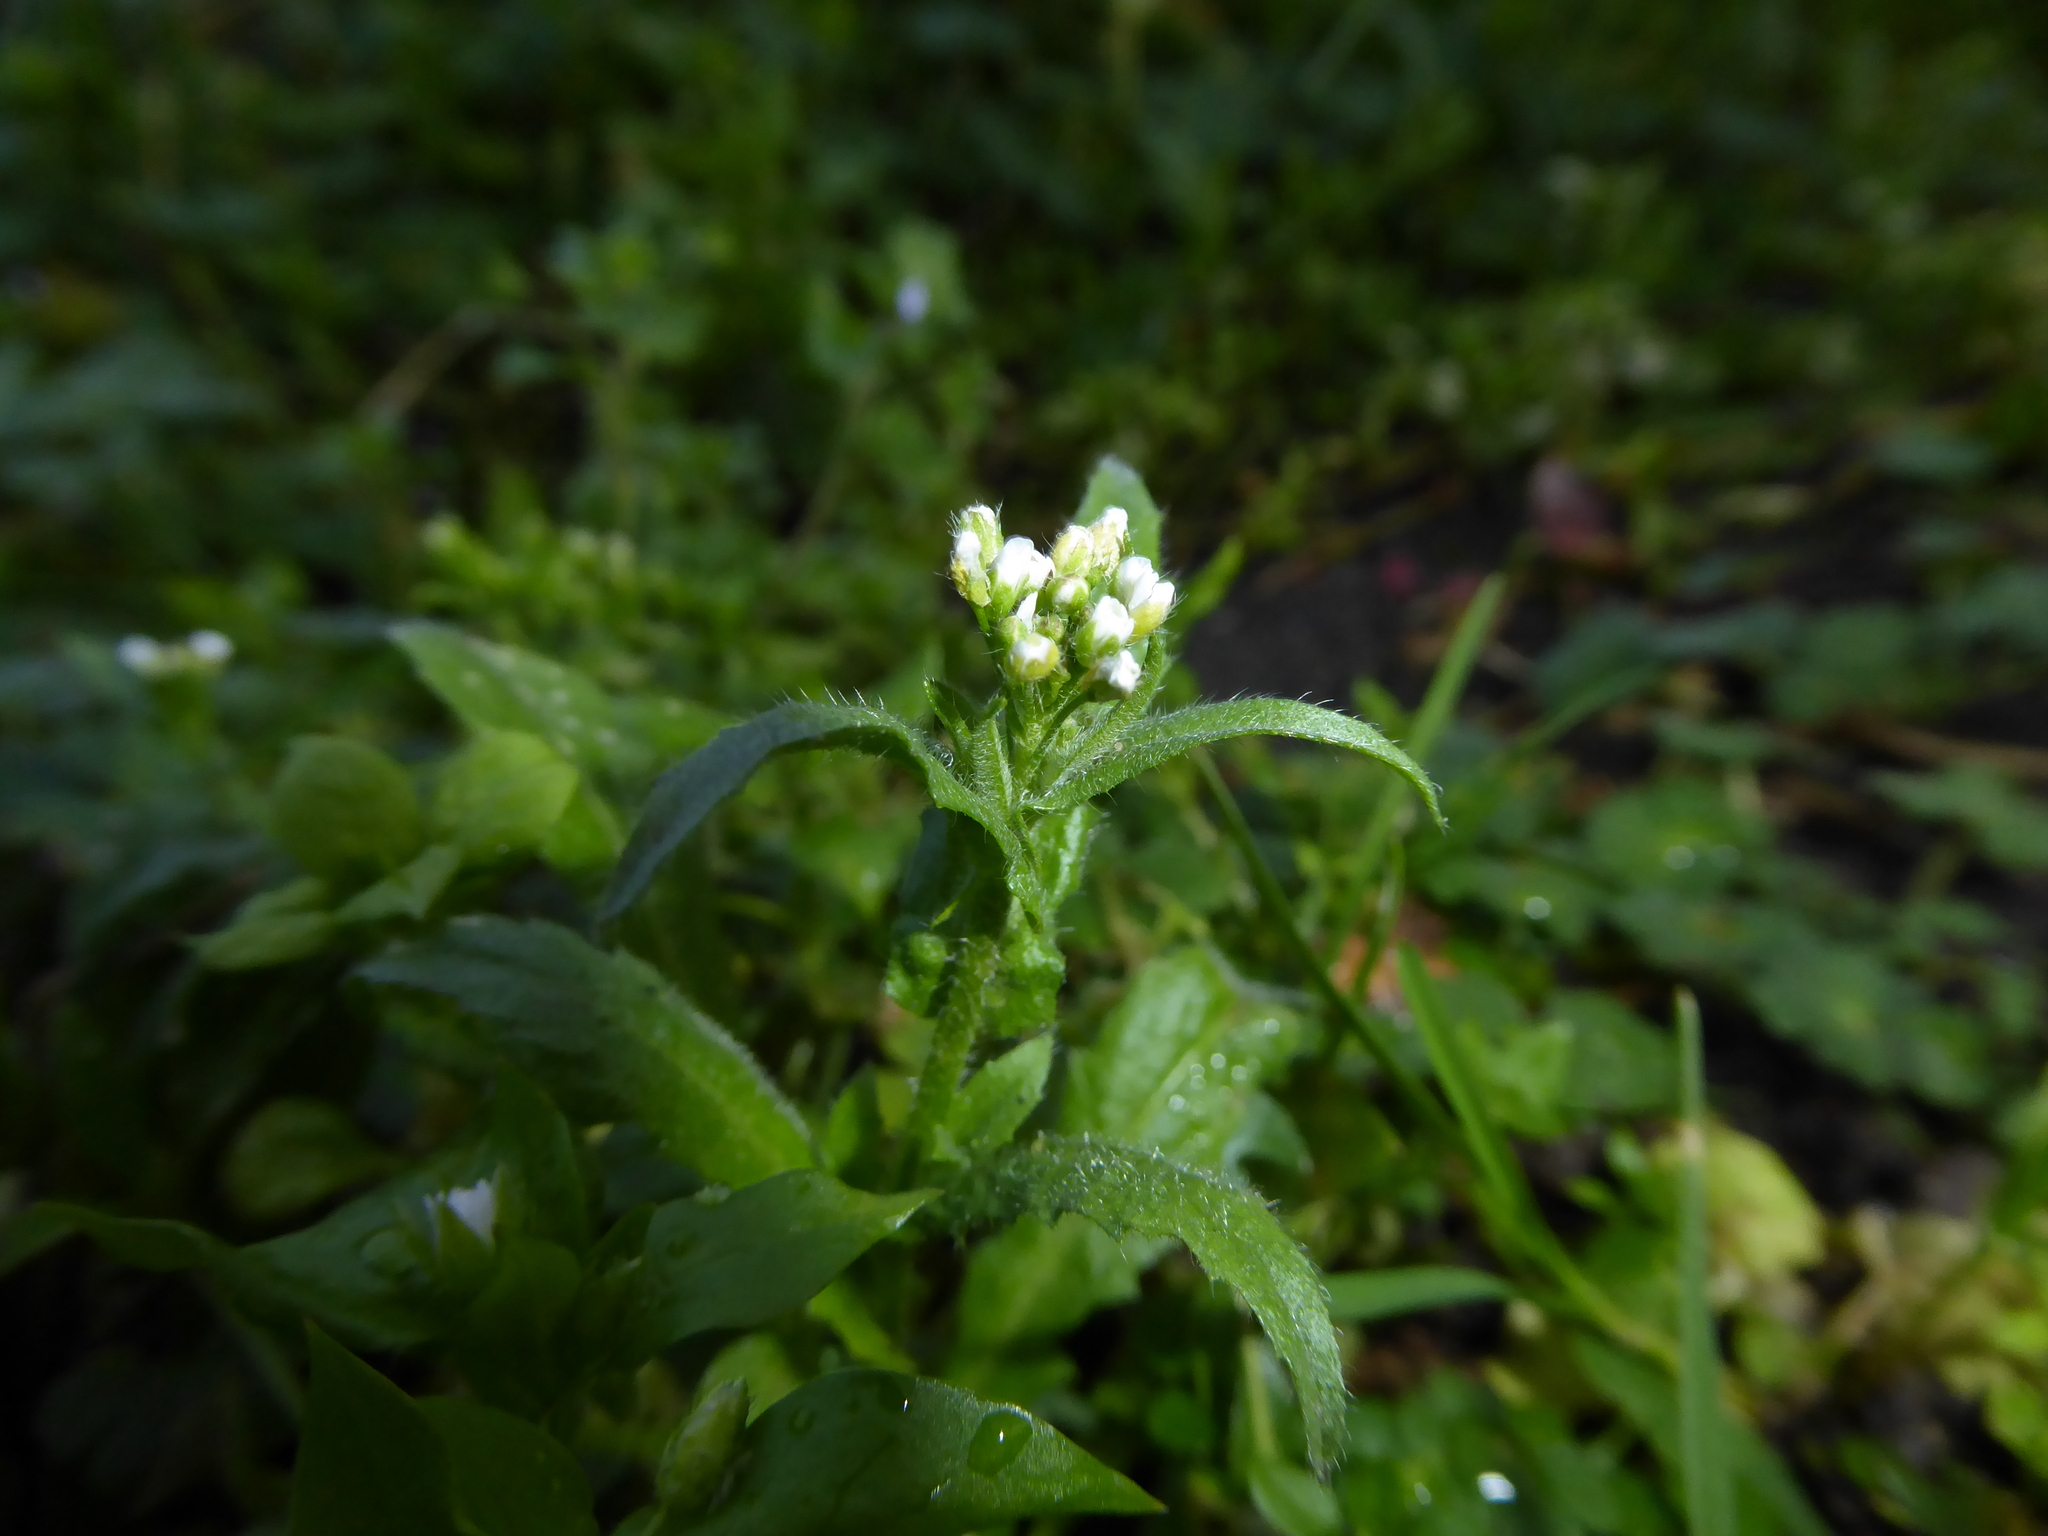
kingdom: Plantae
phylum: Tracheophyta
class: Magnoliopsida
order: Brassicales
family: Brassicaceae
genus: Capsella
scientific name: Capsella bursa-pastoris
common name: Shepherd's purse
